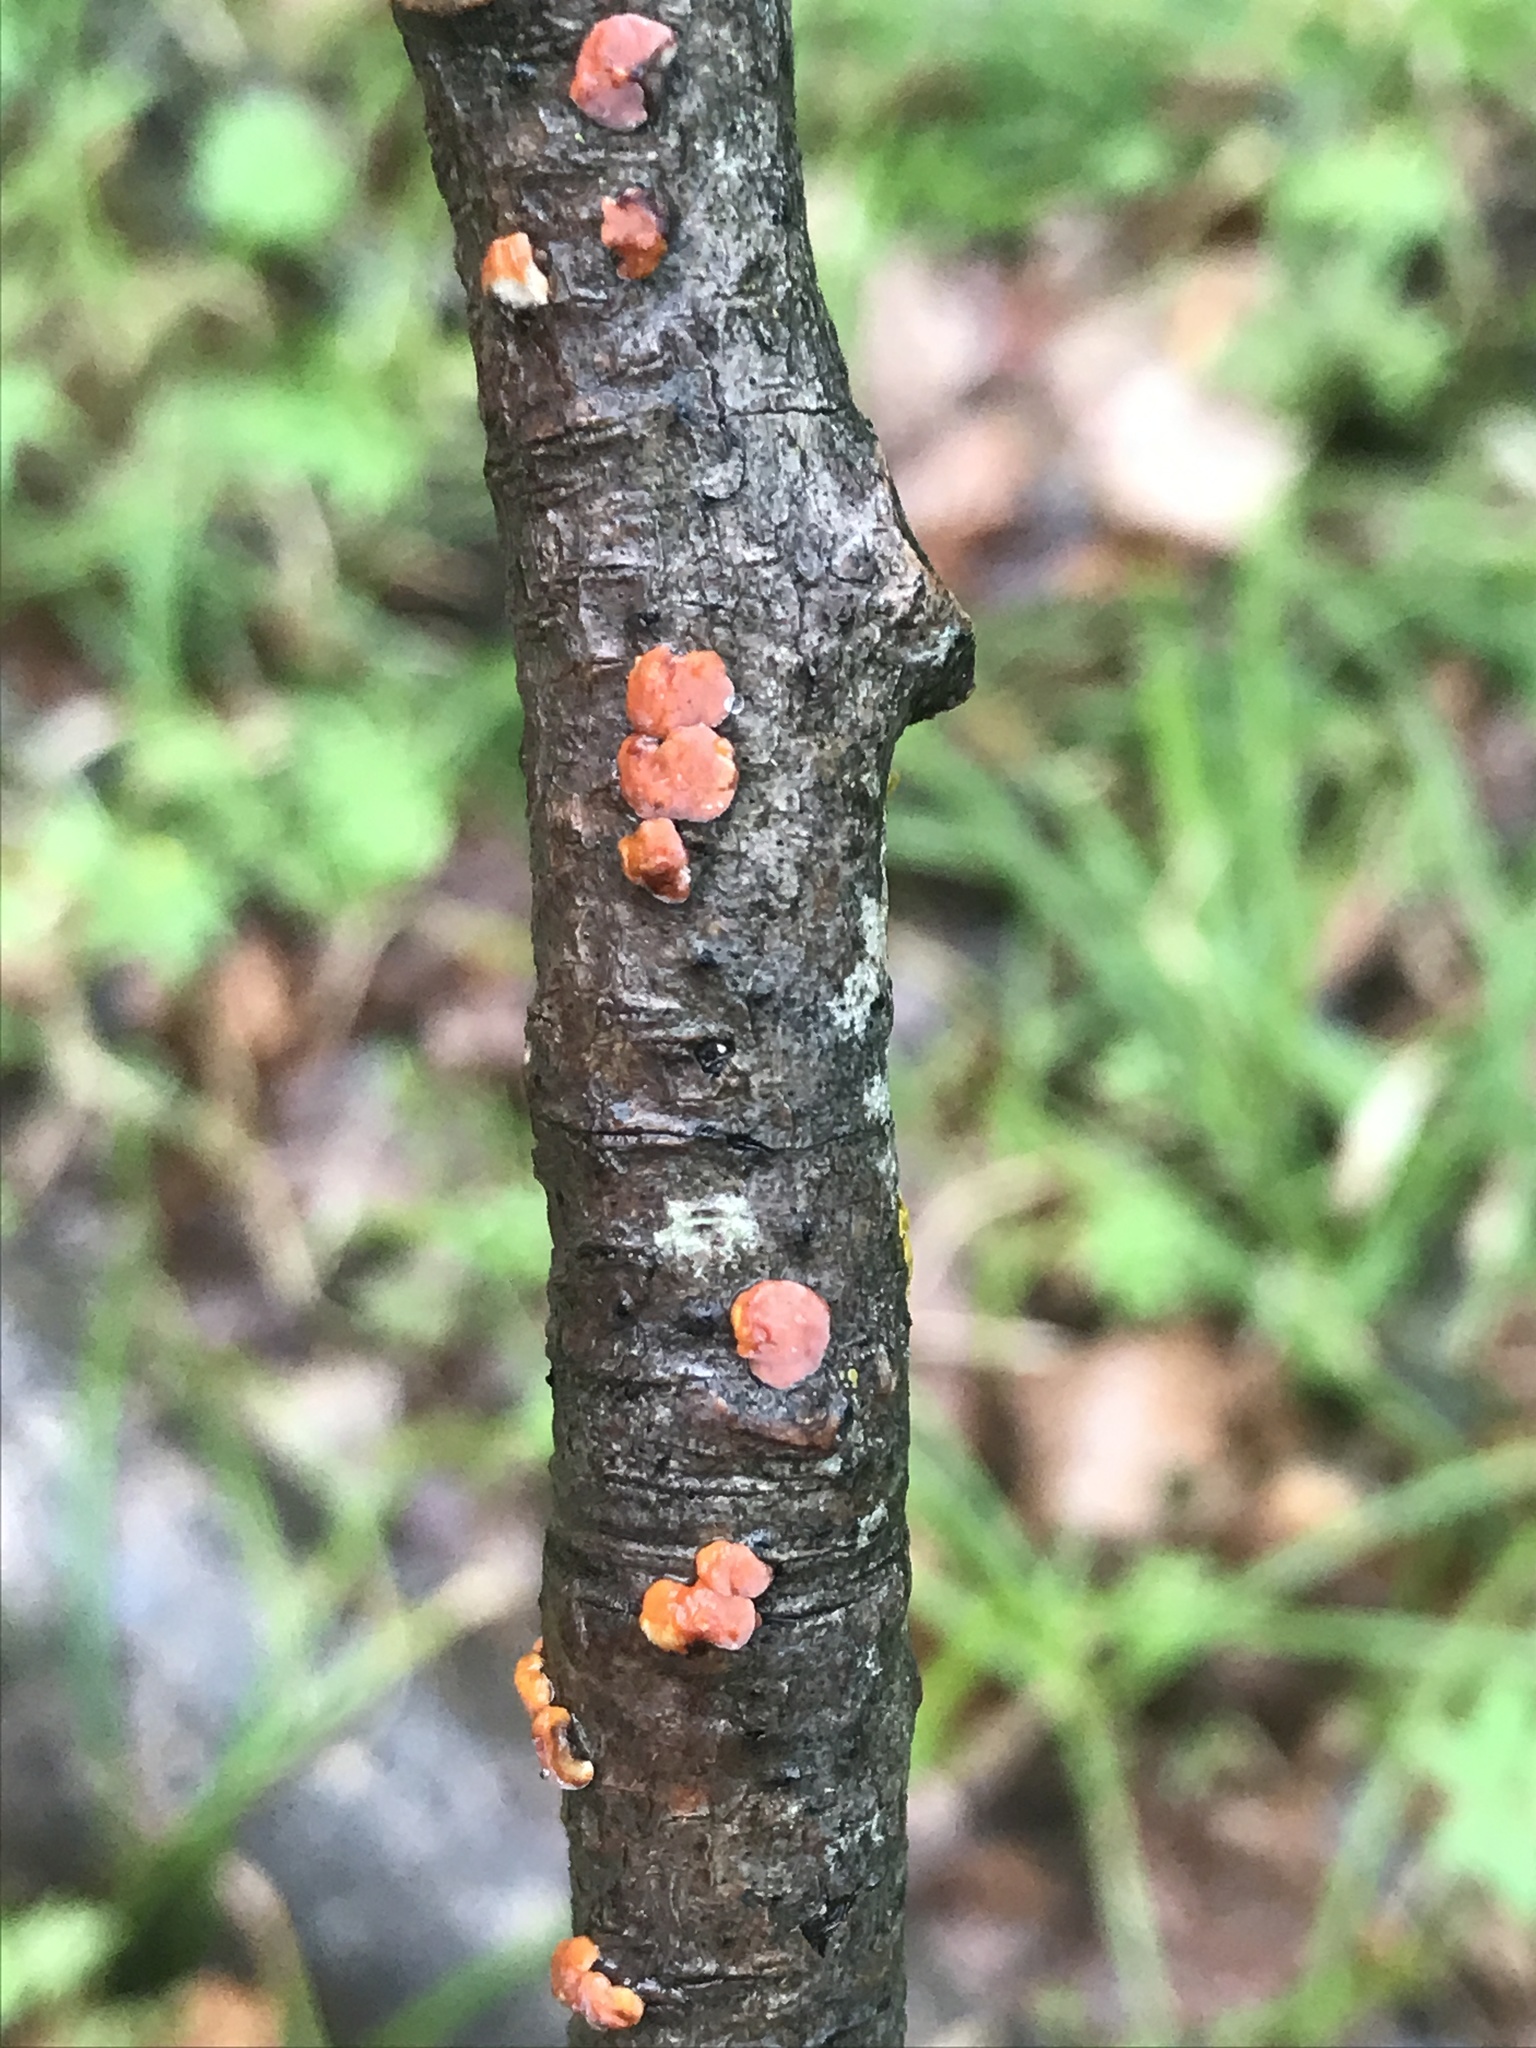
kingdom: Fungi
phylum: Basidiomycota
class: Agaricomycetes
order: Russulales
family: Peniophoraceae
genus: Peniophora
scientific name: Peniophora rufa
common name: Red tree brain fungus
